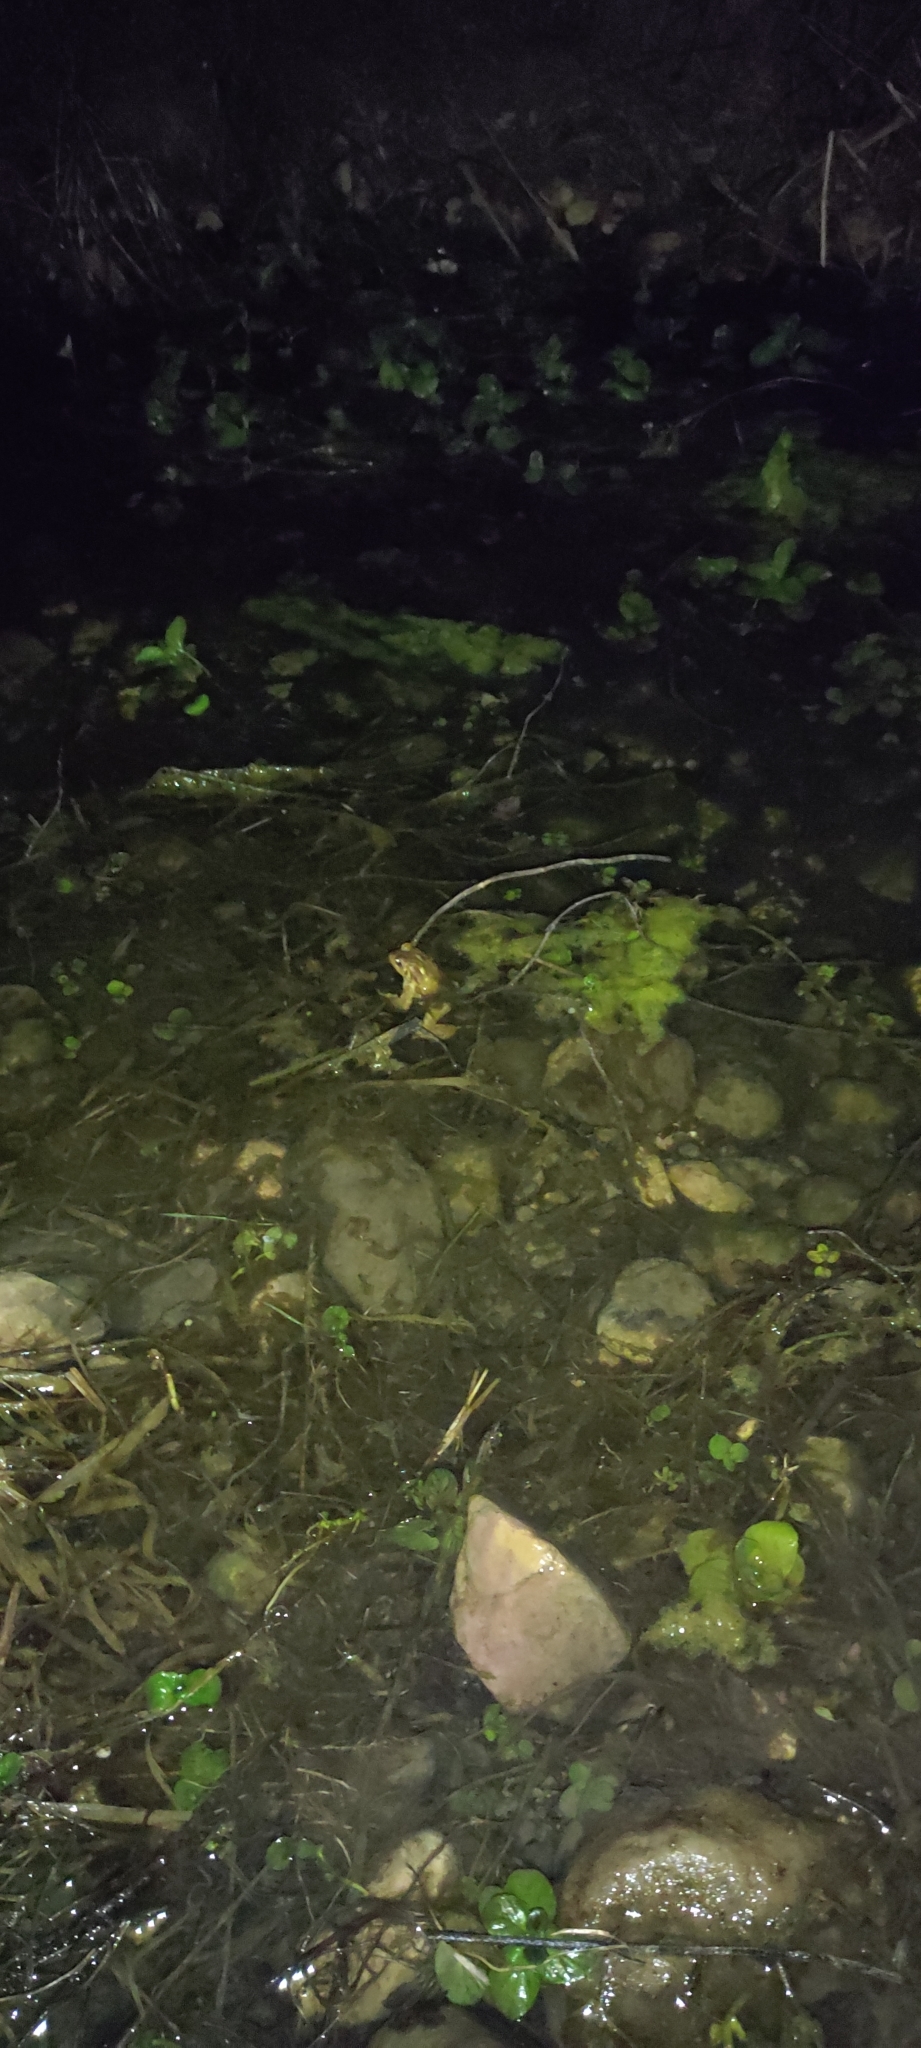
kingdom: Animalia
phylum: Chordata
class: Amphibia
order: Anura
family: Bufonidae
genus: Bufo
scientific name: Bufo spinosus
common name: Western common toad
